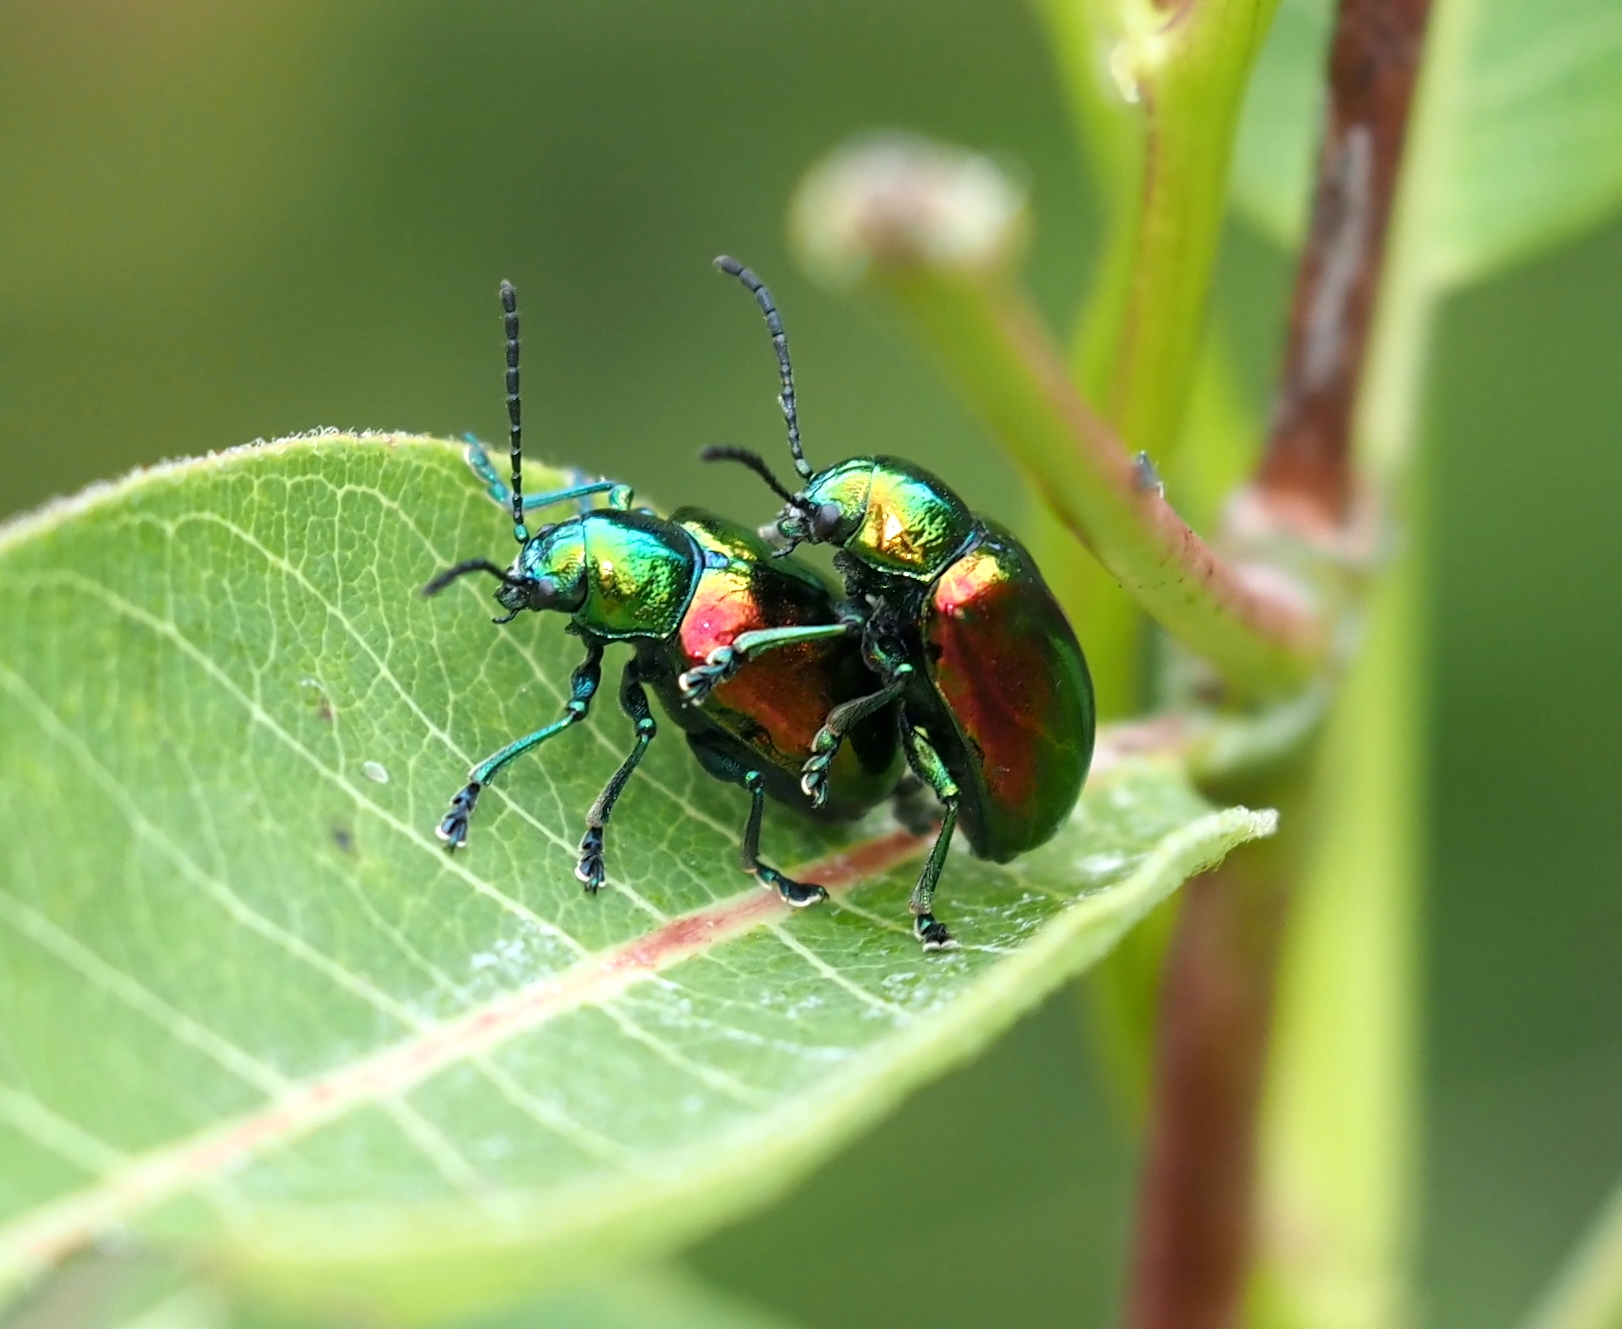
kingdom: Animalia
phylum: Arthropoda
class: Insecta
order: Coleoptera
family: Chrysomelidae
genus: Chrysochus
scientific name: Chrysochus auratus
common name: Dogbane leaf beetle
